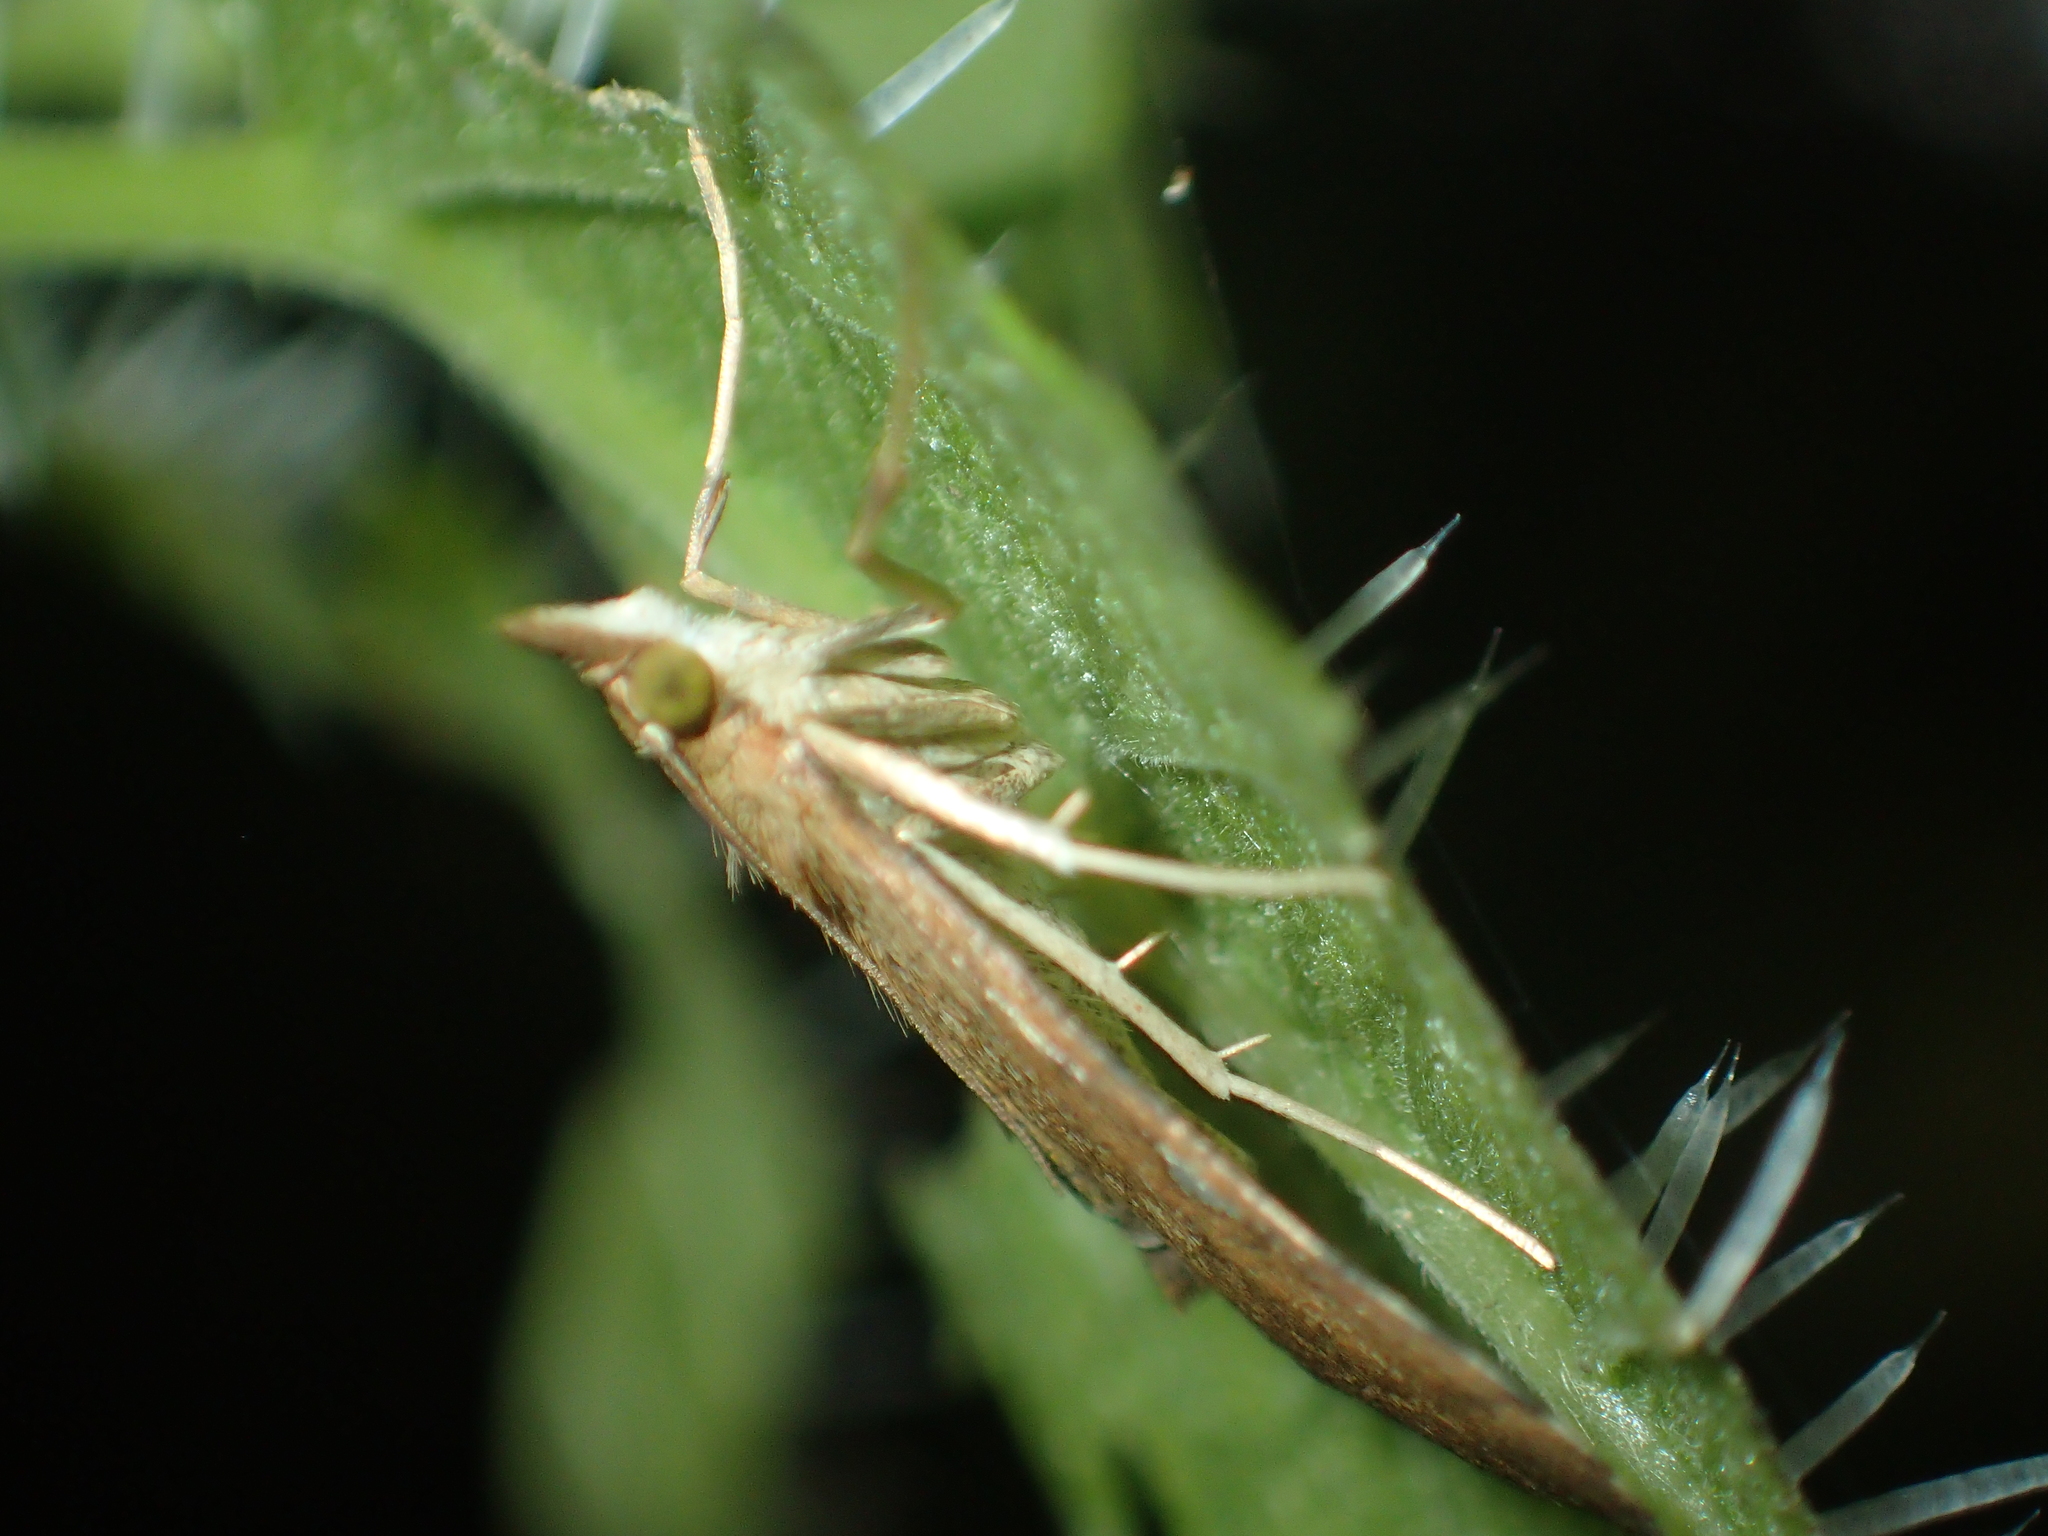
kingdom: Animalia
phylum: Arthropoda
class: Insecta
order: Lepidoptera
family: Crambidae
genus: Udea
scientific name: Udea Mnesictena marmarina
